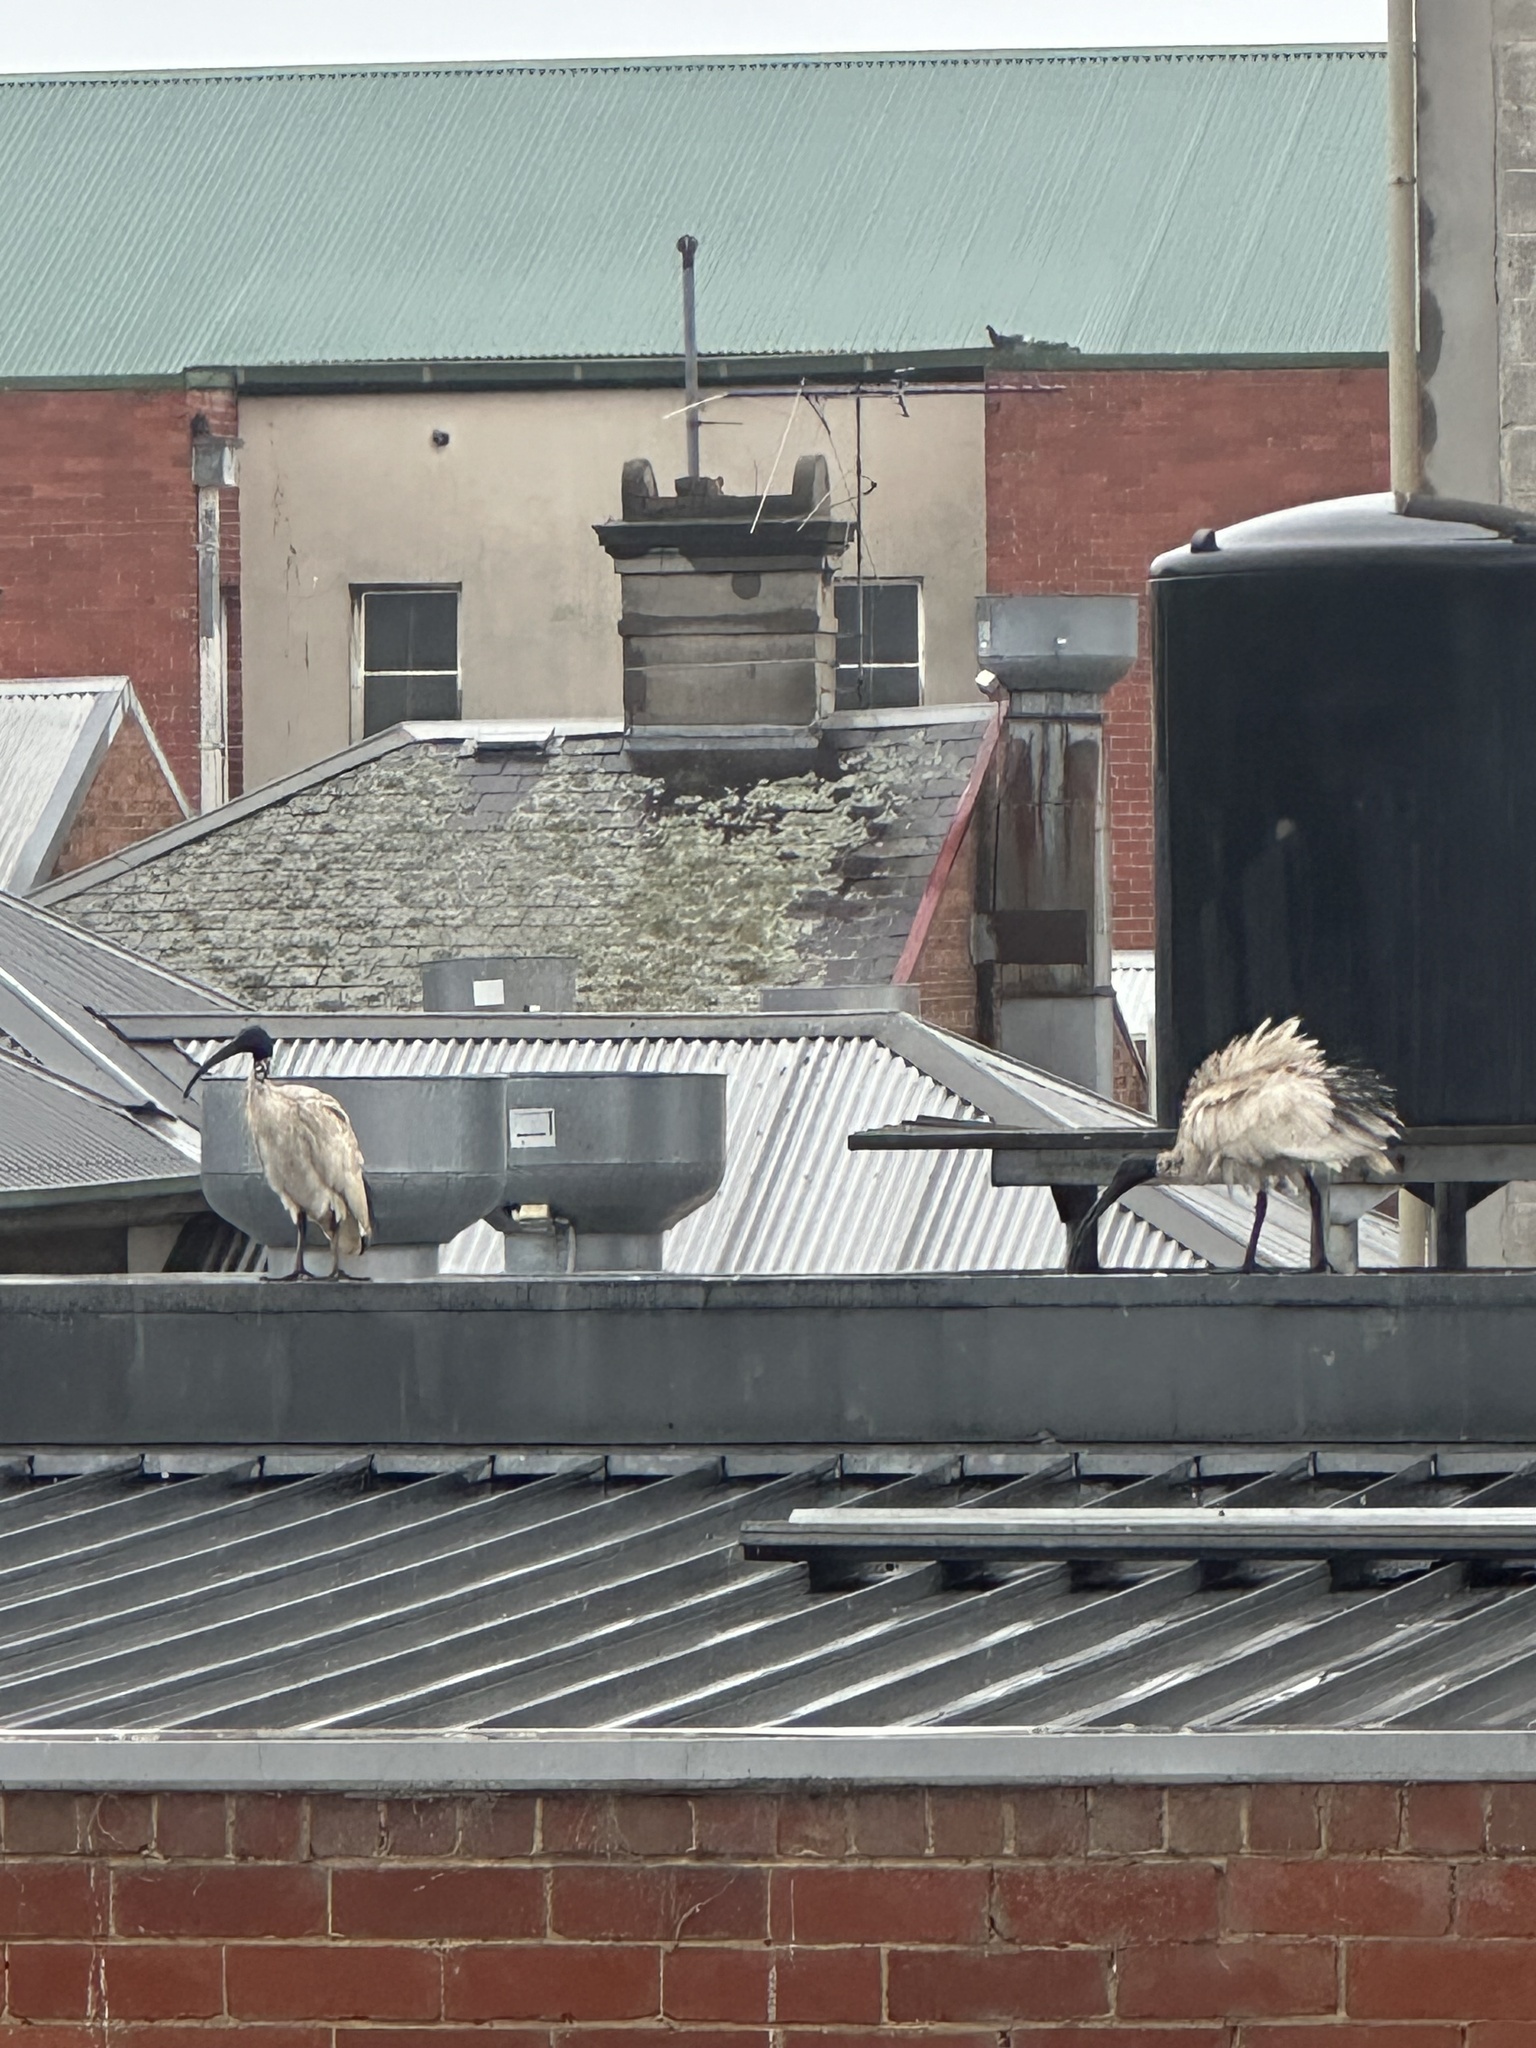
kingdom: Animalia
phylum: Chordata
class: Aves
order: Pelecaniformes
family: Threskiornithidae
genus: Threskiornis
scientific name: Threskiornis molucca
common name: Australian white ibis
